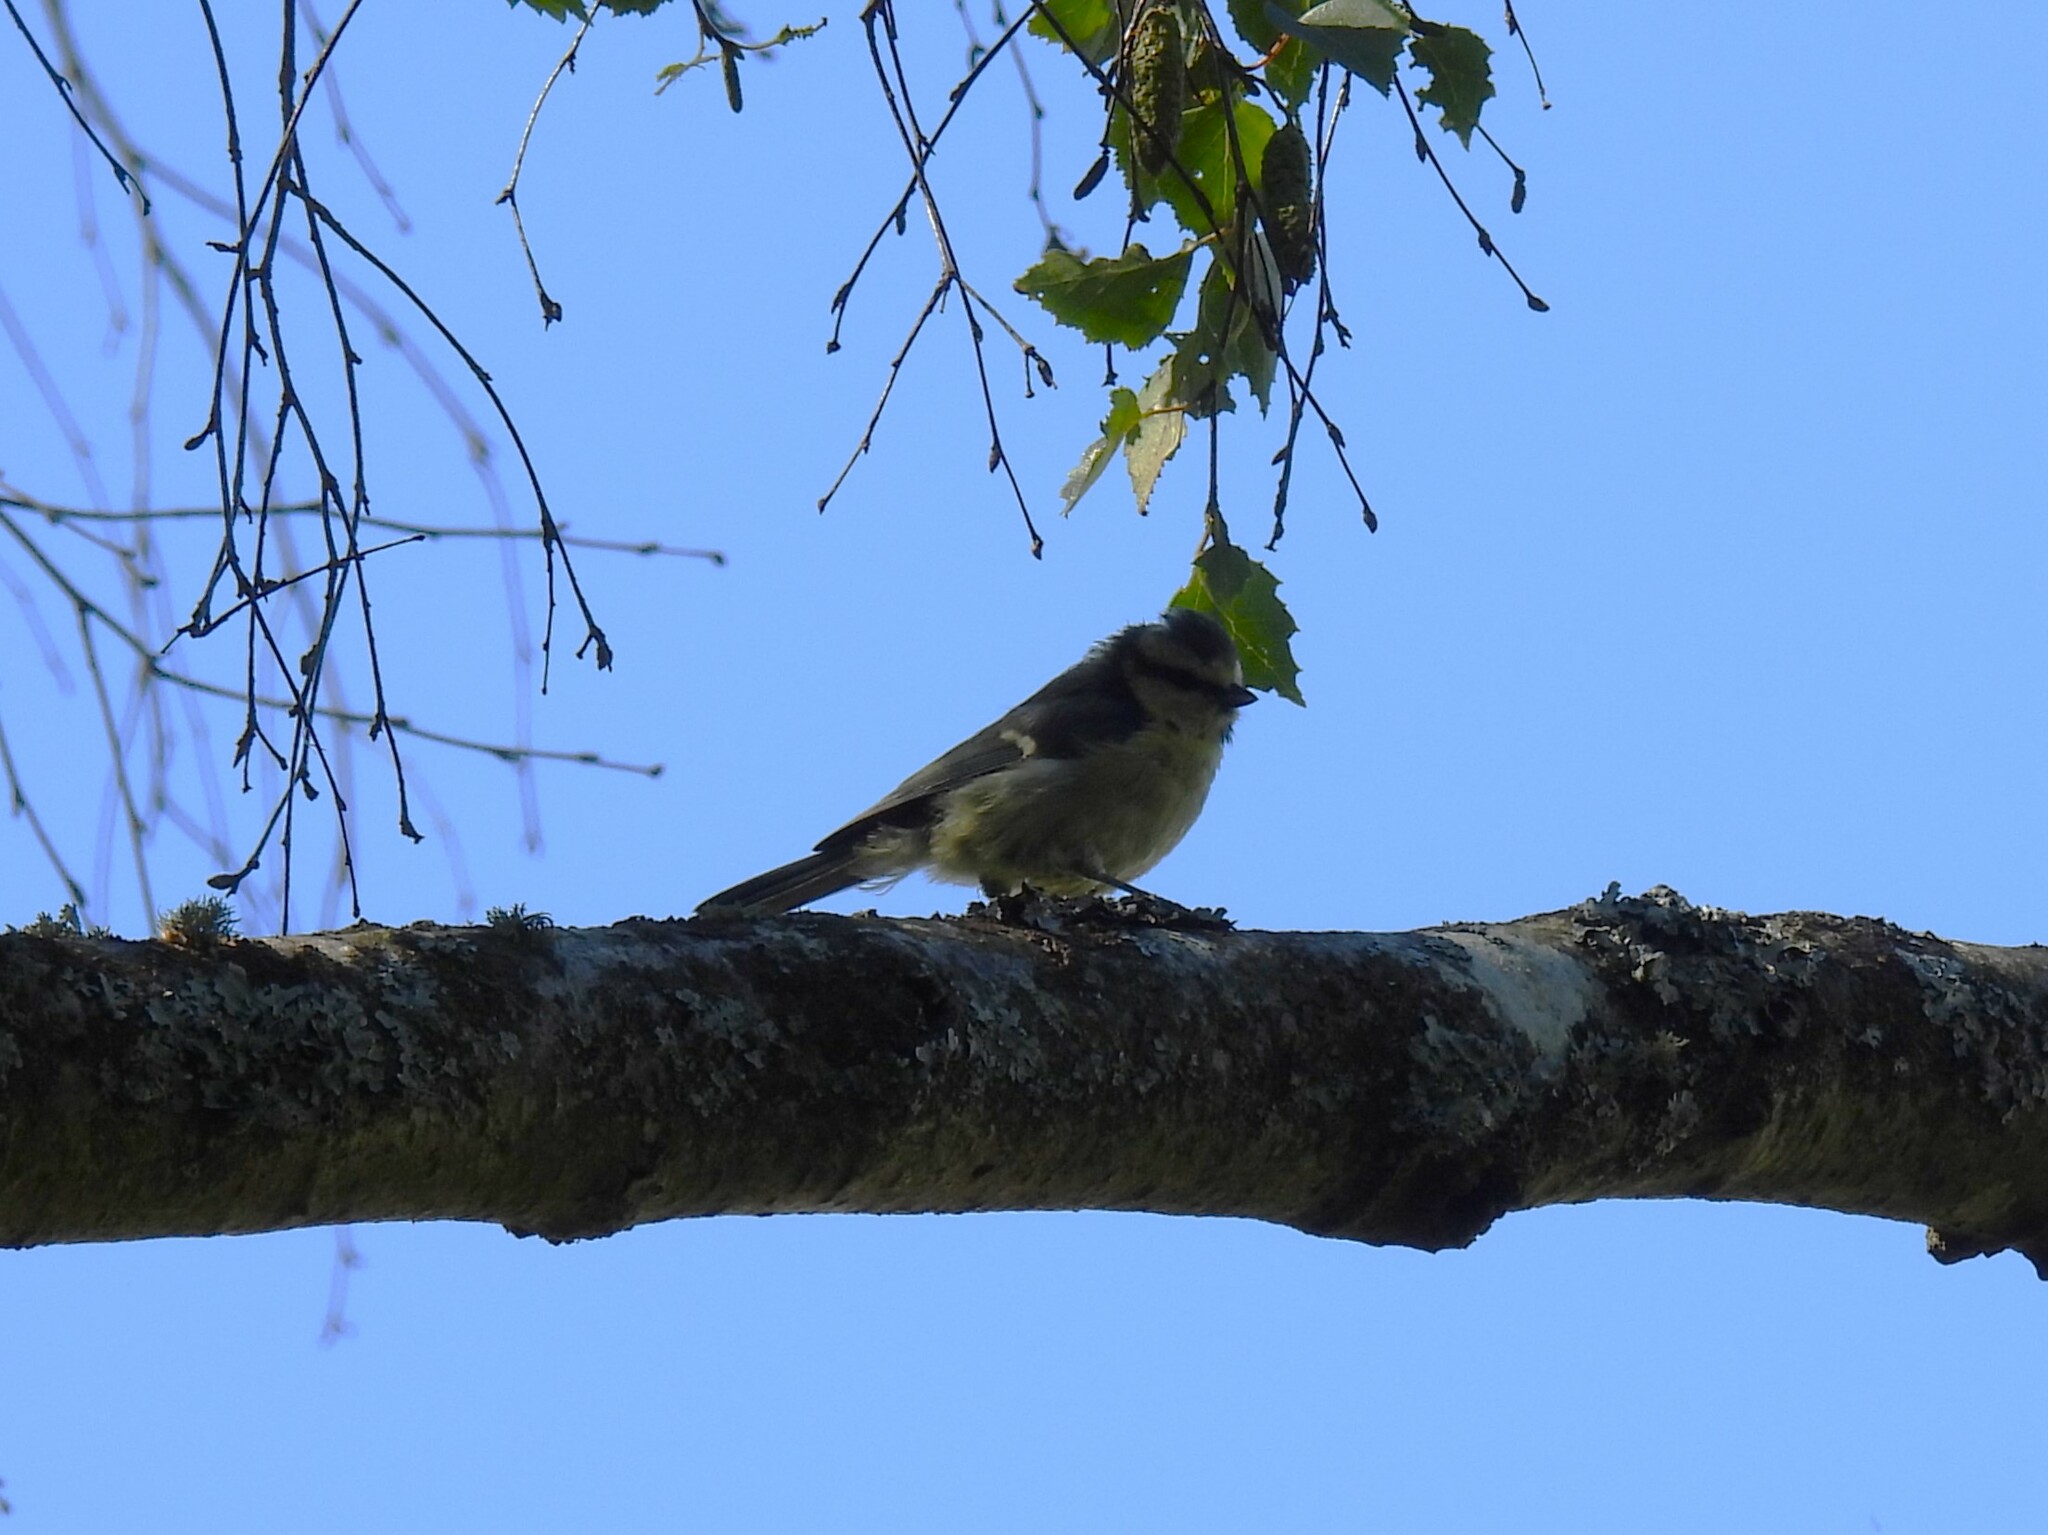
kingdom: Animalia
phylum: Chordata
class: Aves
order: Passeriformes
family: Paridae
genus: Cyanistes
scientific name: Cyanistes caeruleus
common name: Eurasian blue tit
